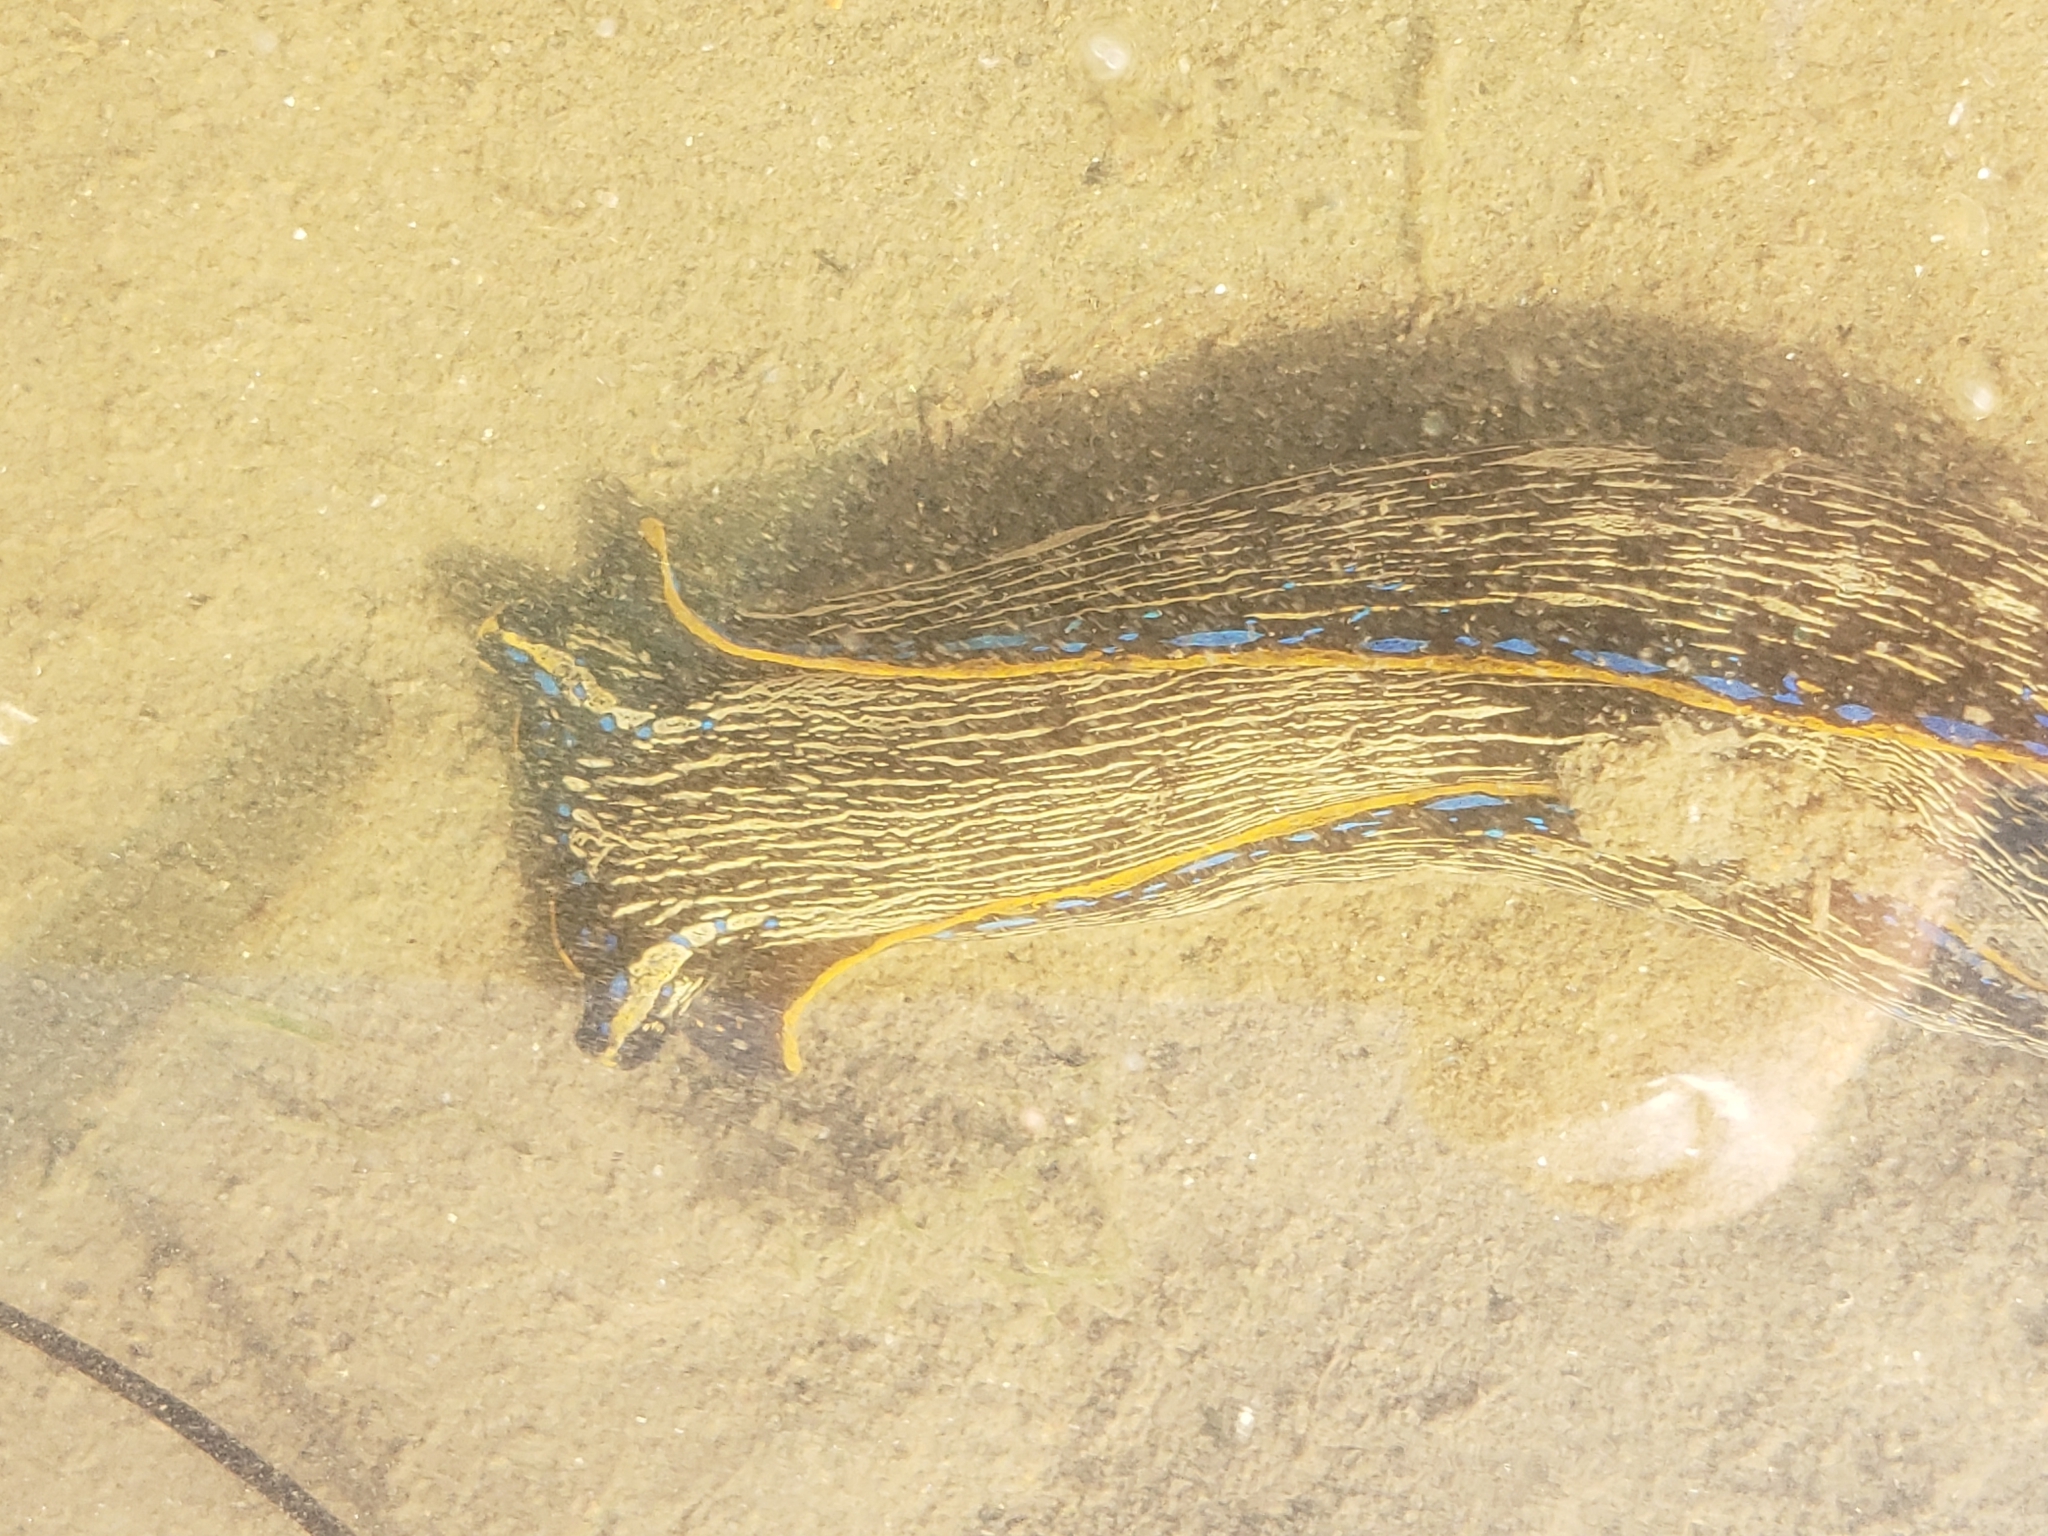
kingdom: Animalia
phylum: Mollusca
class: Gastropoda
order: Cephalaspidea
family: Aglajidae
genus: Navanax
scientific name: Navanax inermis
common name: California aglaja
